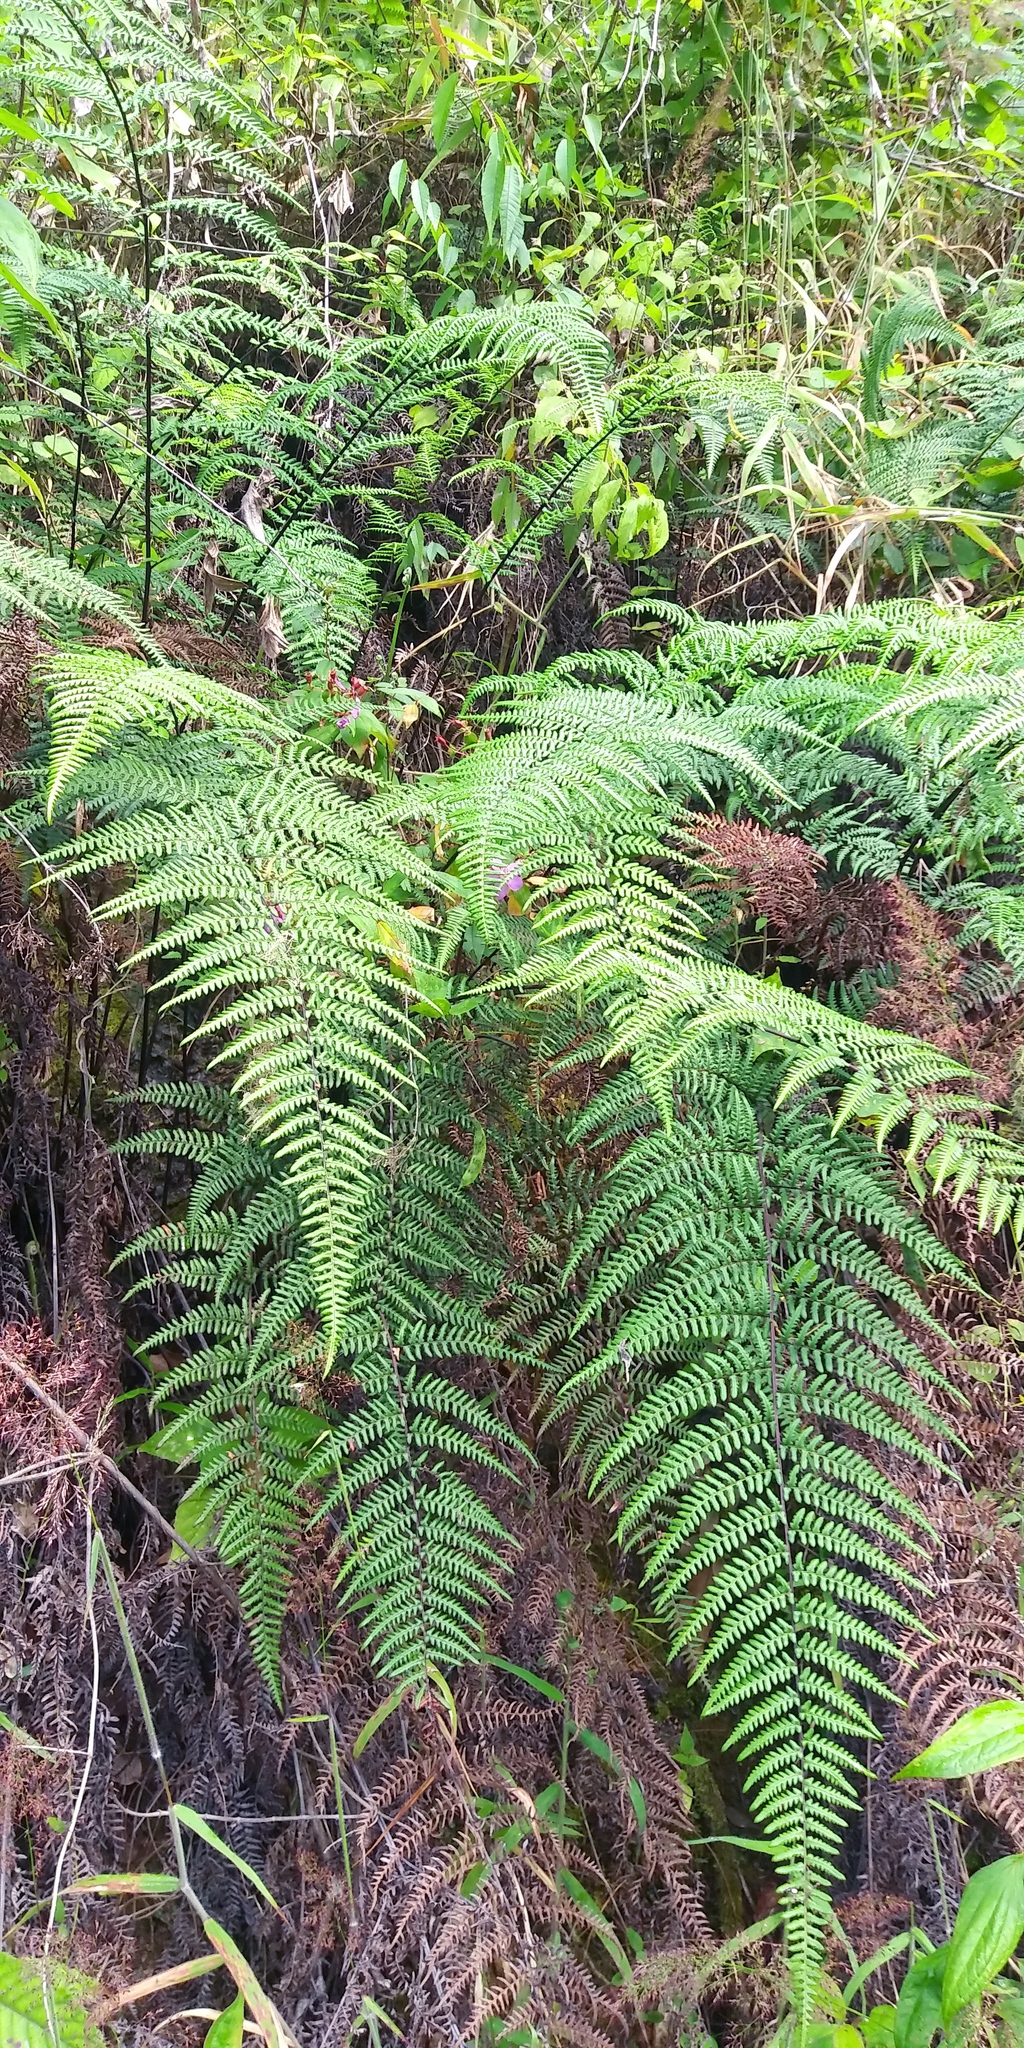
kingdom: Plantae
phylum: Tracheophyta
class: Polypodiopsida
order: Gleicheniales
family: Gleicheniaceae
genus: Diplopterygium
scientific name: Diplopterygium bancroftii
